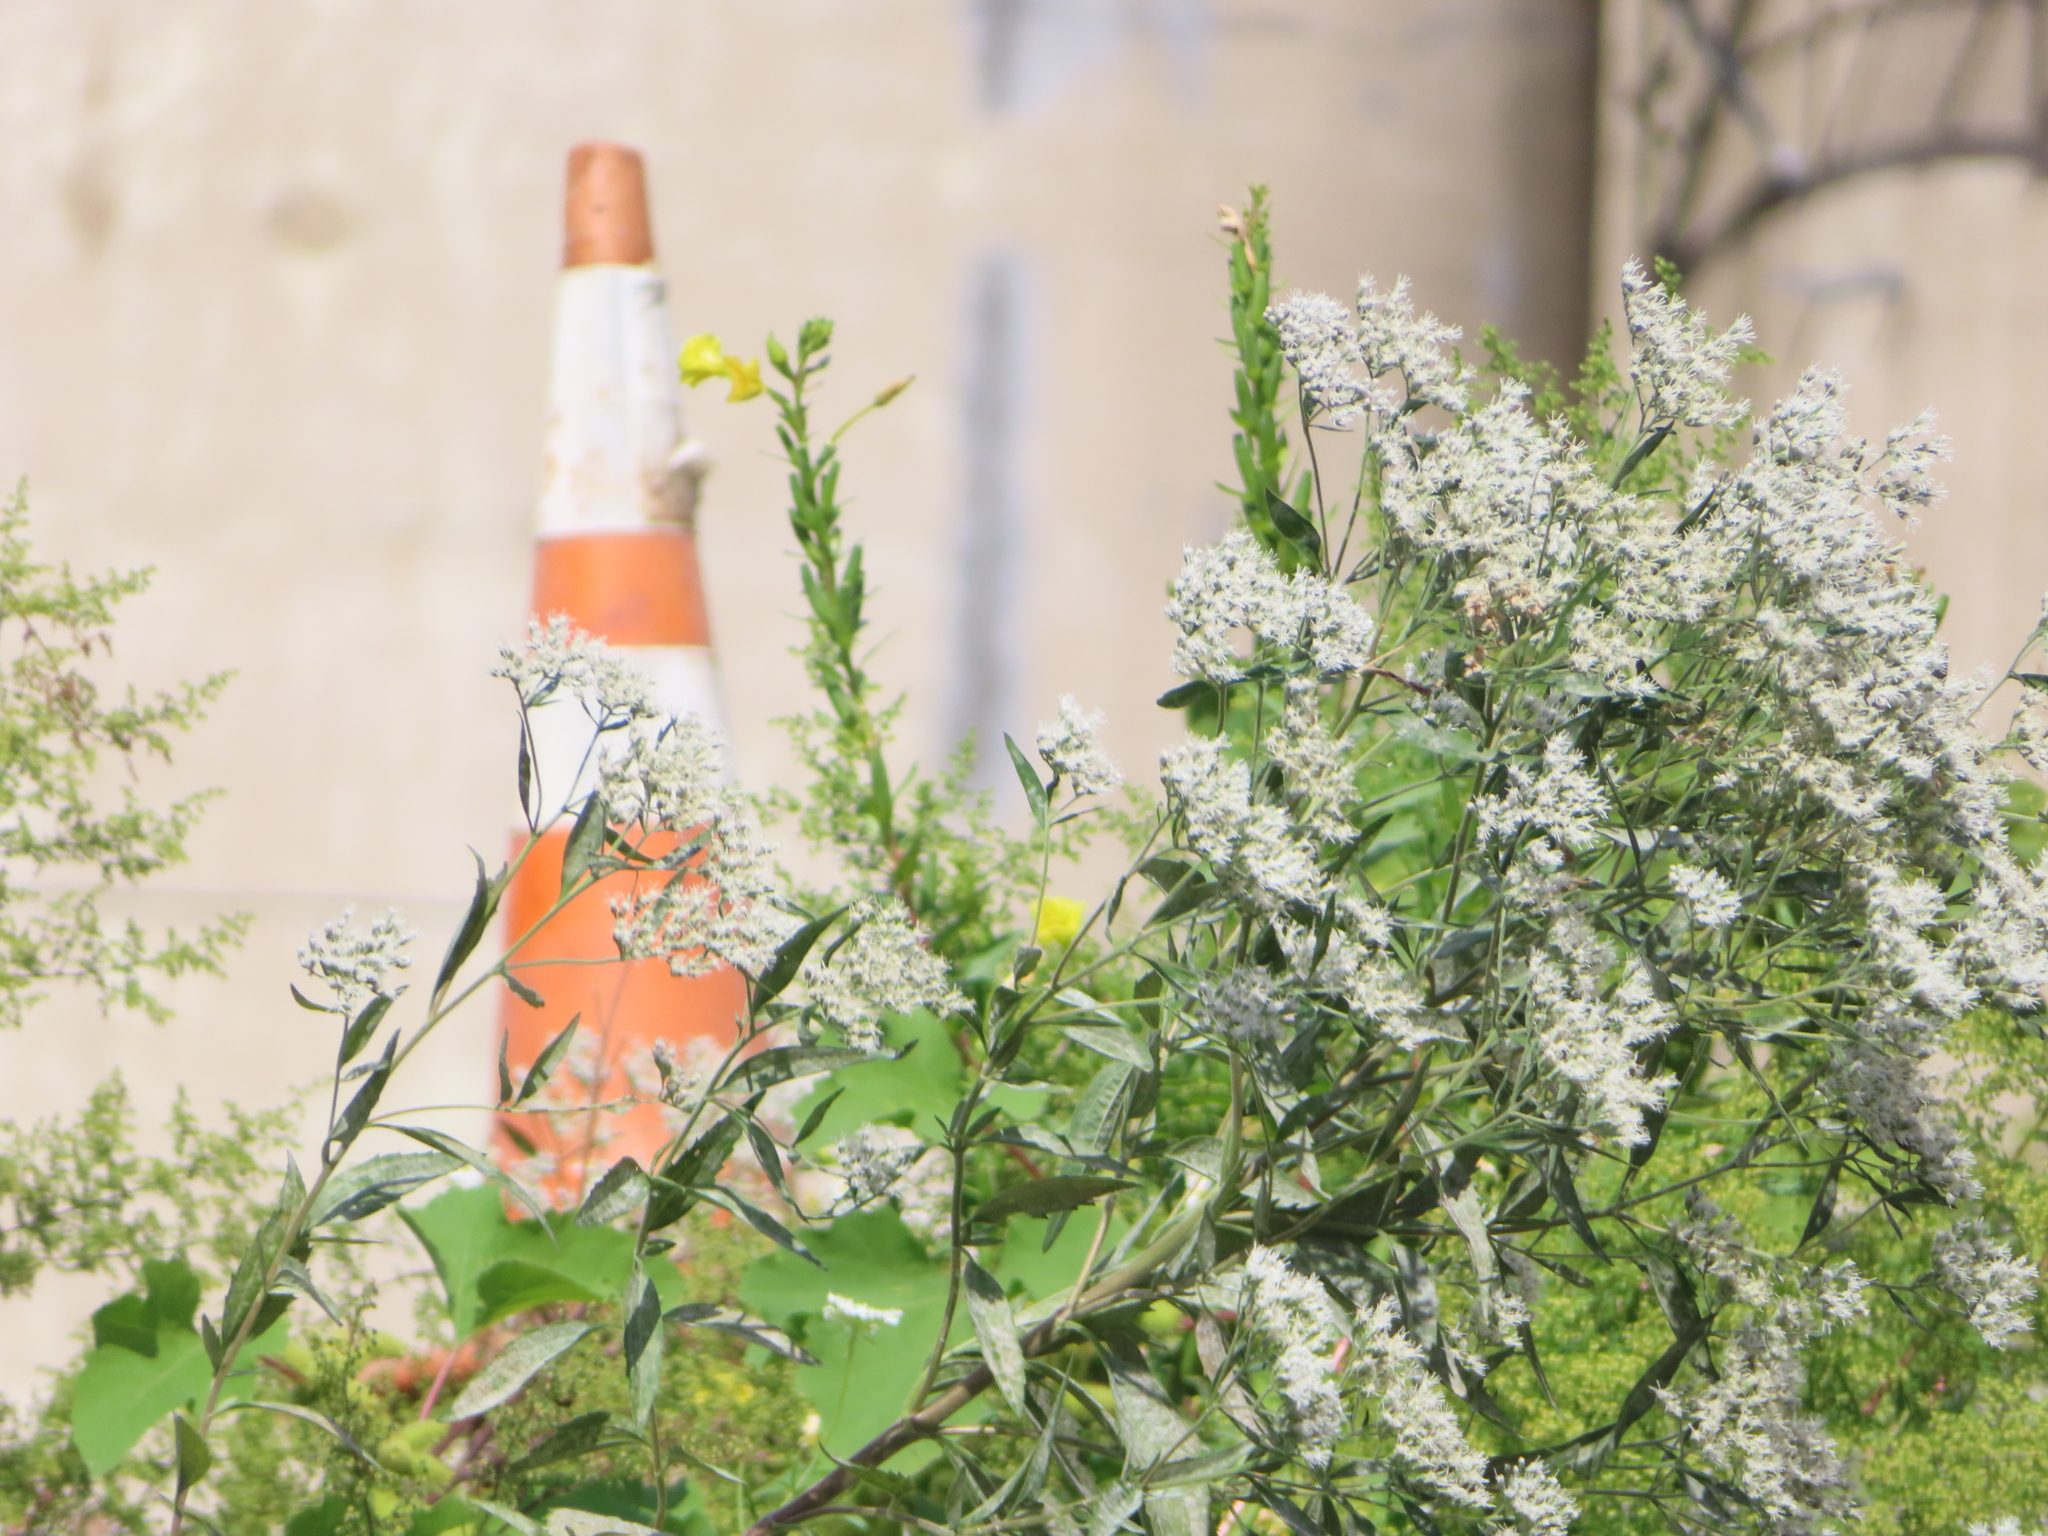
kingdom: Plantae
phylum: Tracheophyta
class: Magnoliopsida
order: Asterales
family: Asteraceae
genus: Eupatorium
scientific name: Eupatorium serotinum
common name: Late boneset
